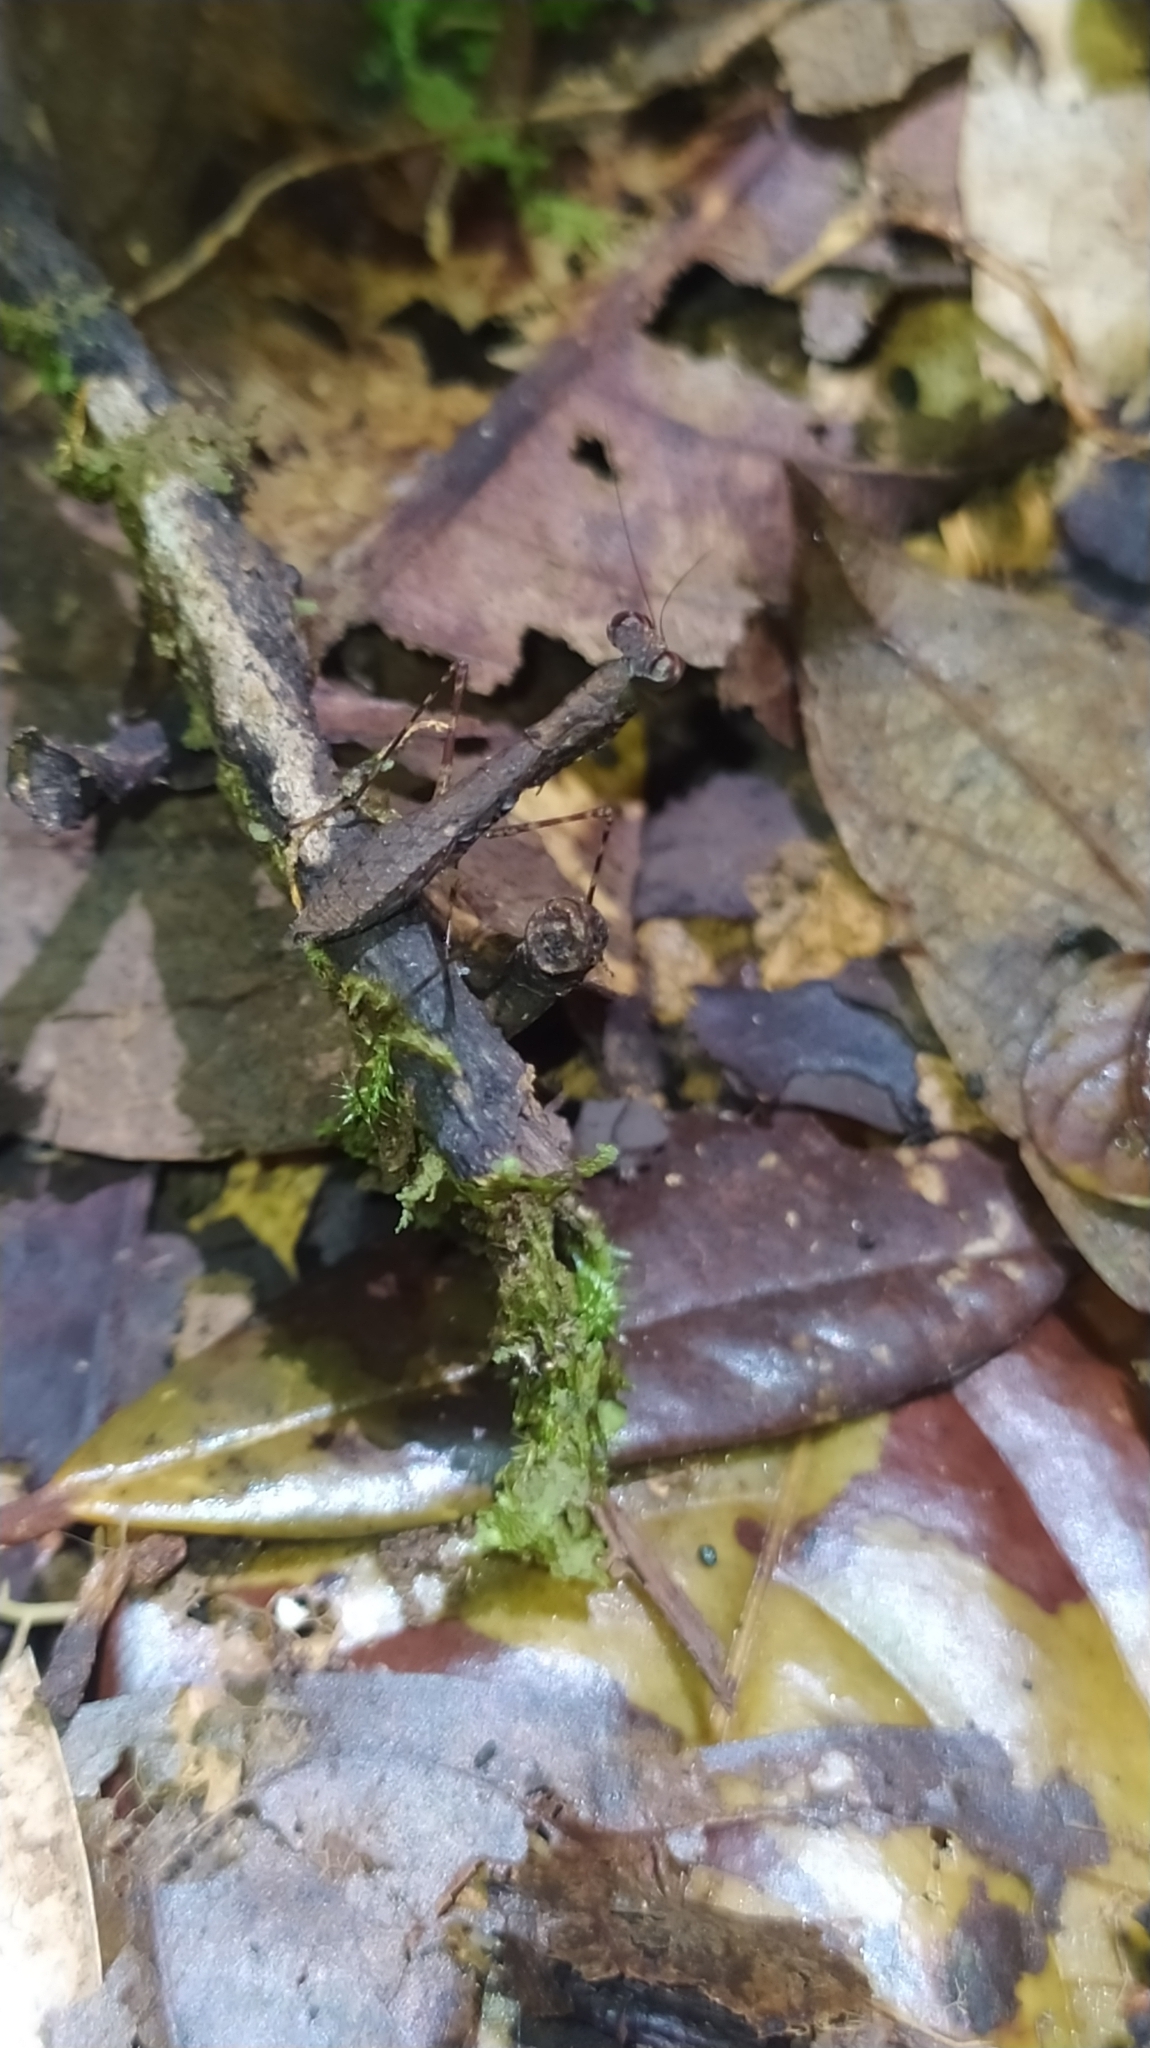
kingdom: Animalia
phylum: Arthropoda
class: Insecta
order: Mantodea
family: Thespidae
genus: Bantia
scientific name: Bantia fusca
